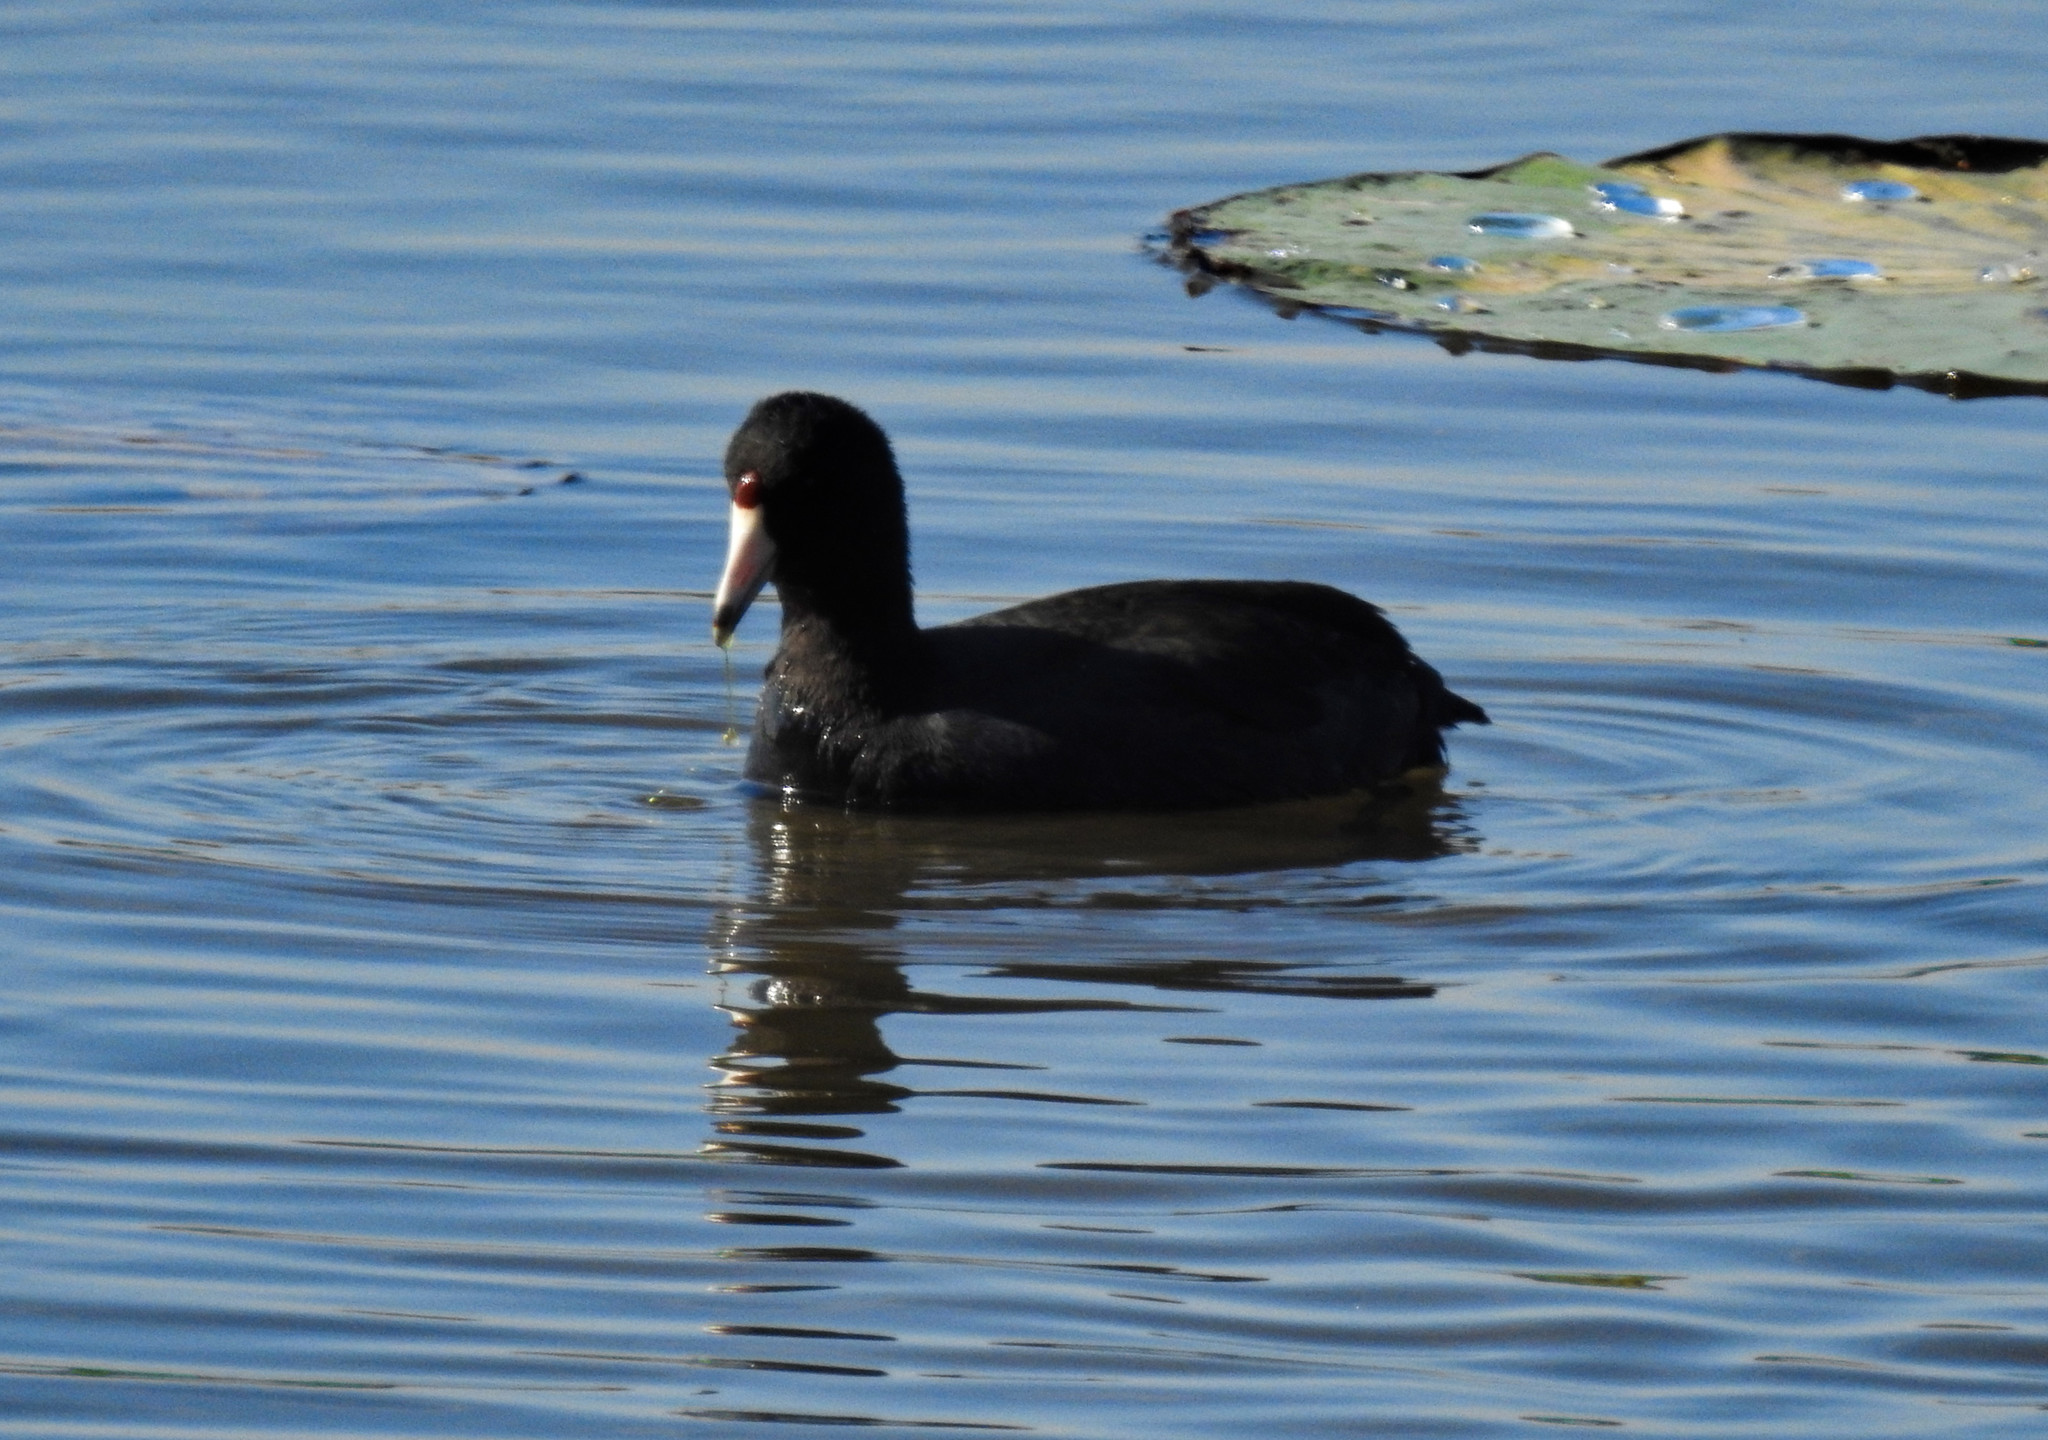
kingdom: Animalia
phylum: Chordata
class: Aves
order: Gruiformes
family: Rallidae
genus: Fulica
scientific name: Fulica americana
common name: American coot
